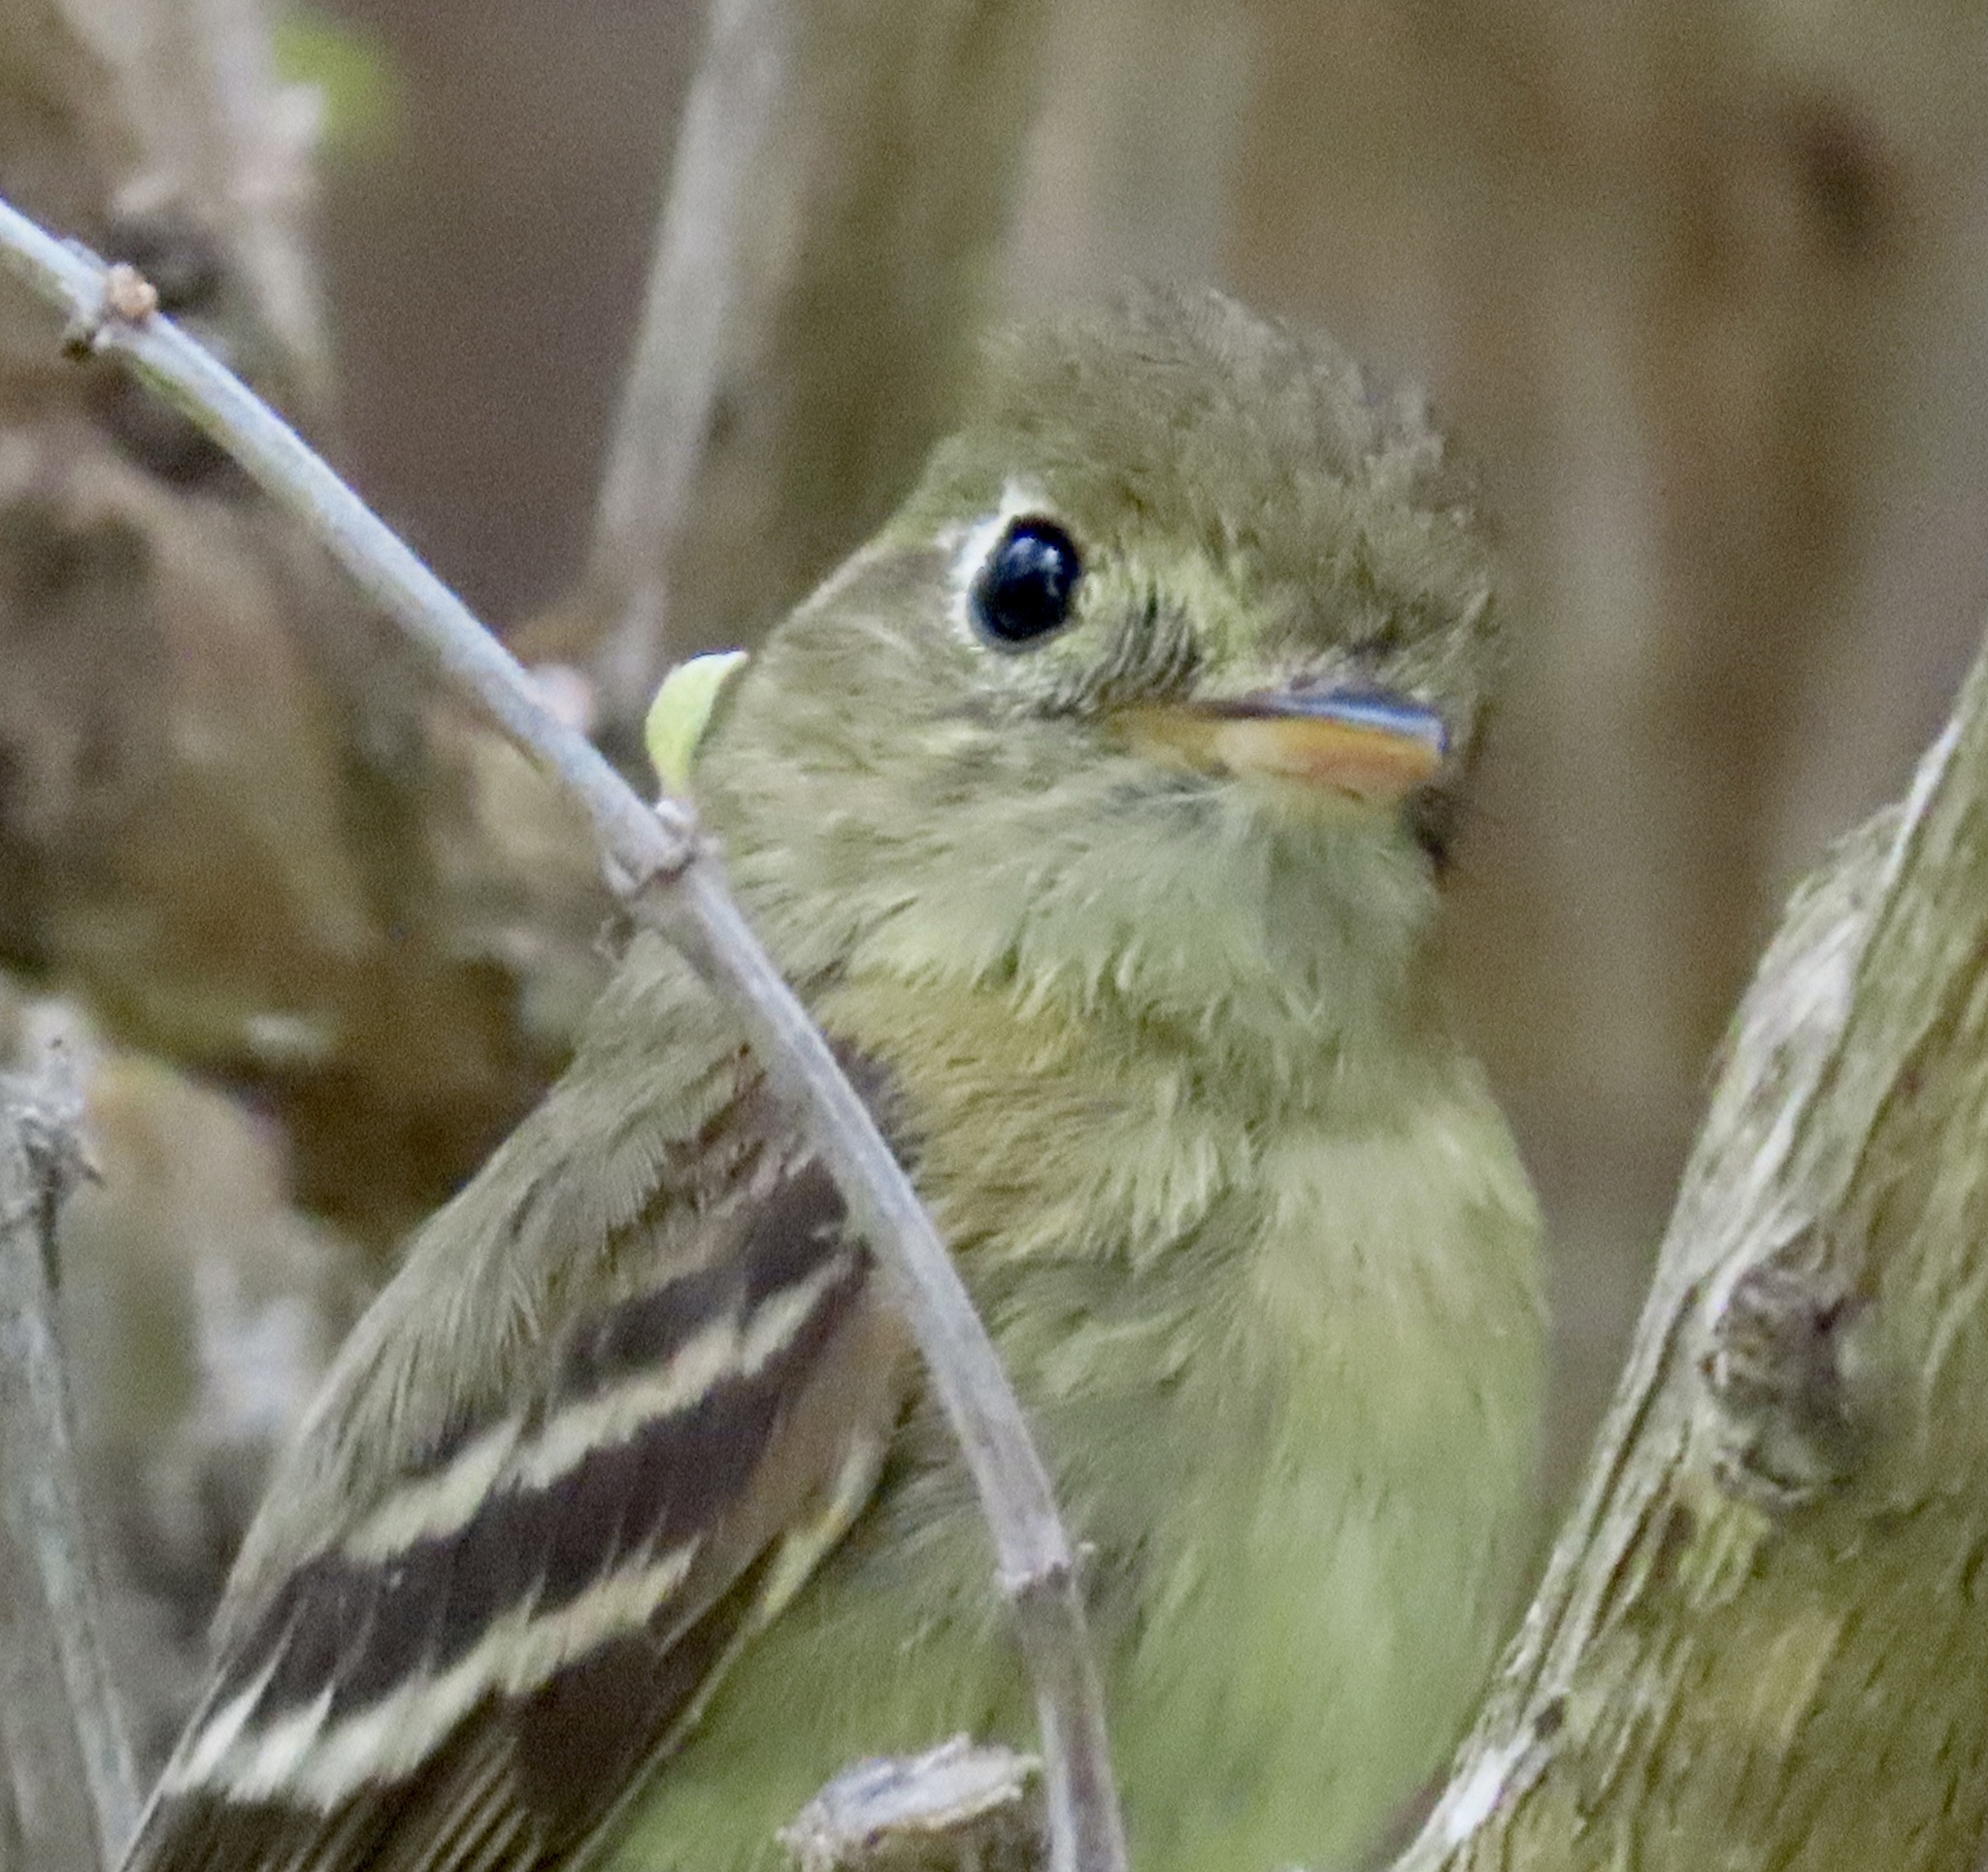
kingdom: Animalia
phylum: Chordata
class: Aves
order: Passeriformes
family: Tyrannidae
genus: Empidonax
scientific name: Empidonax difficilis
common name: Pacific-slope flycatcher
